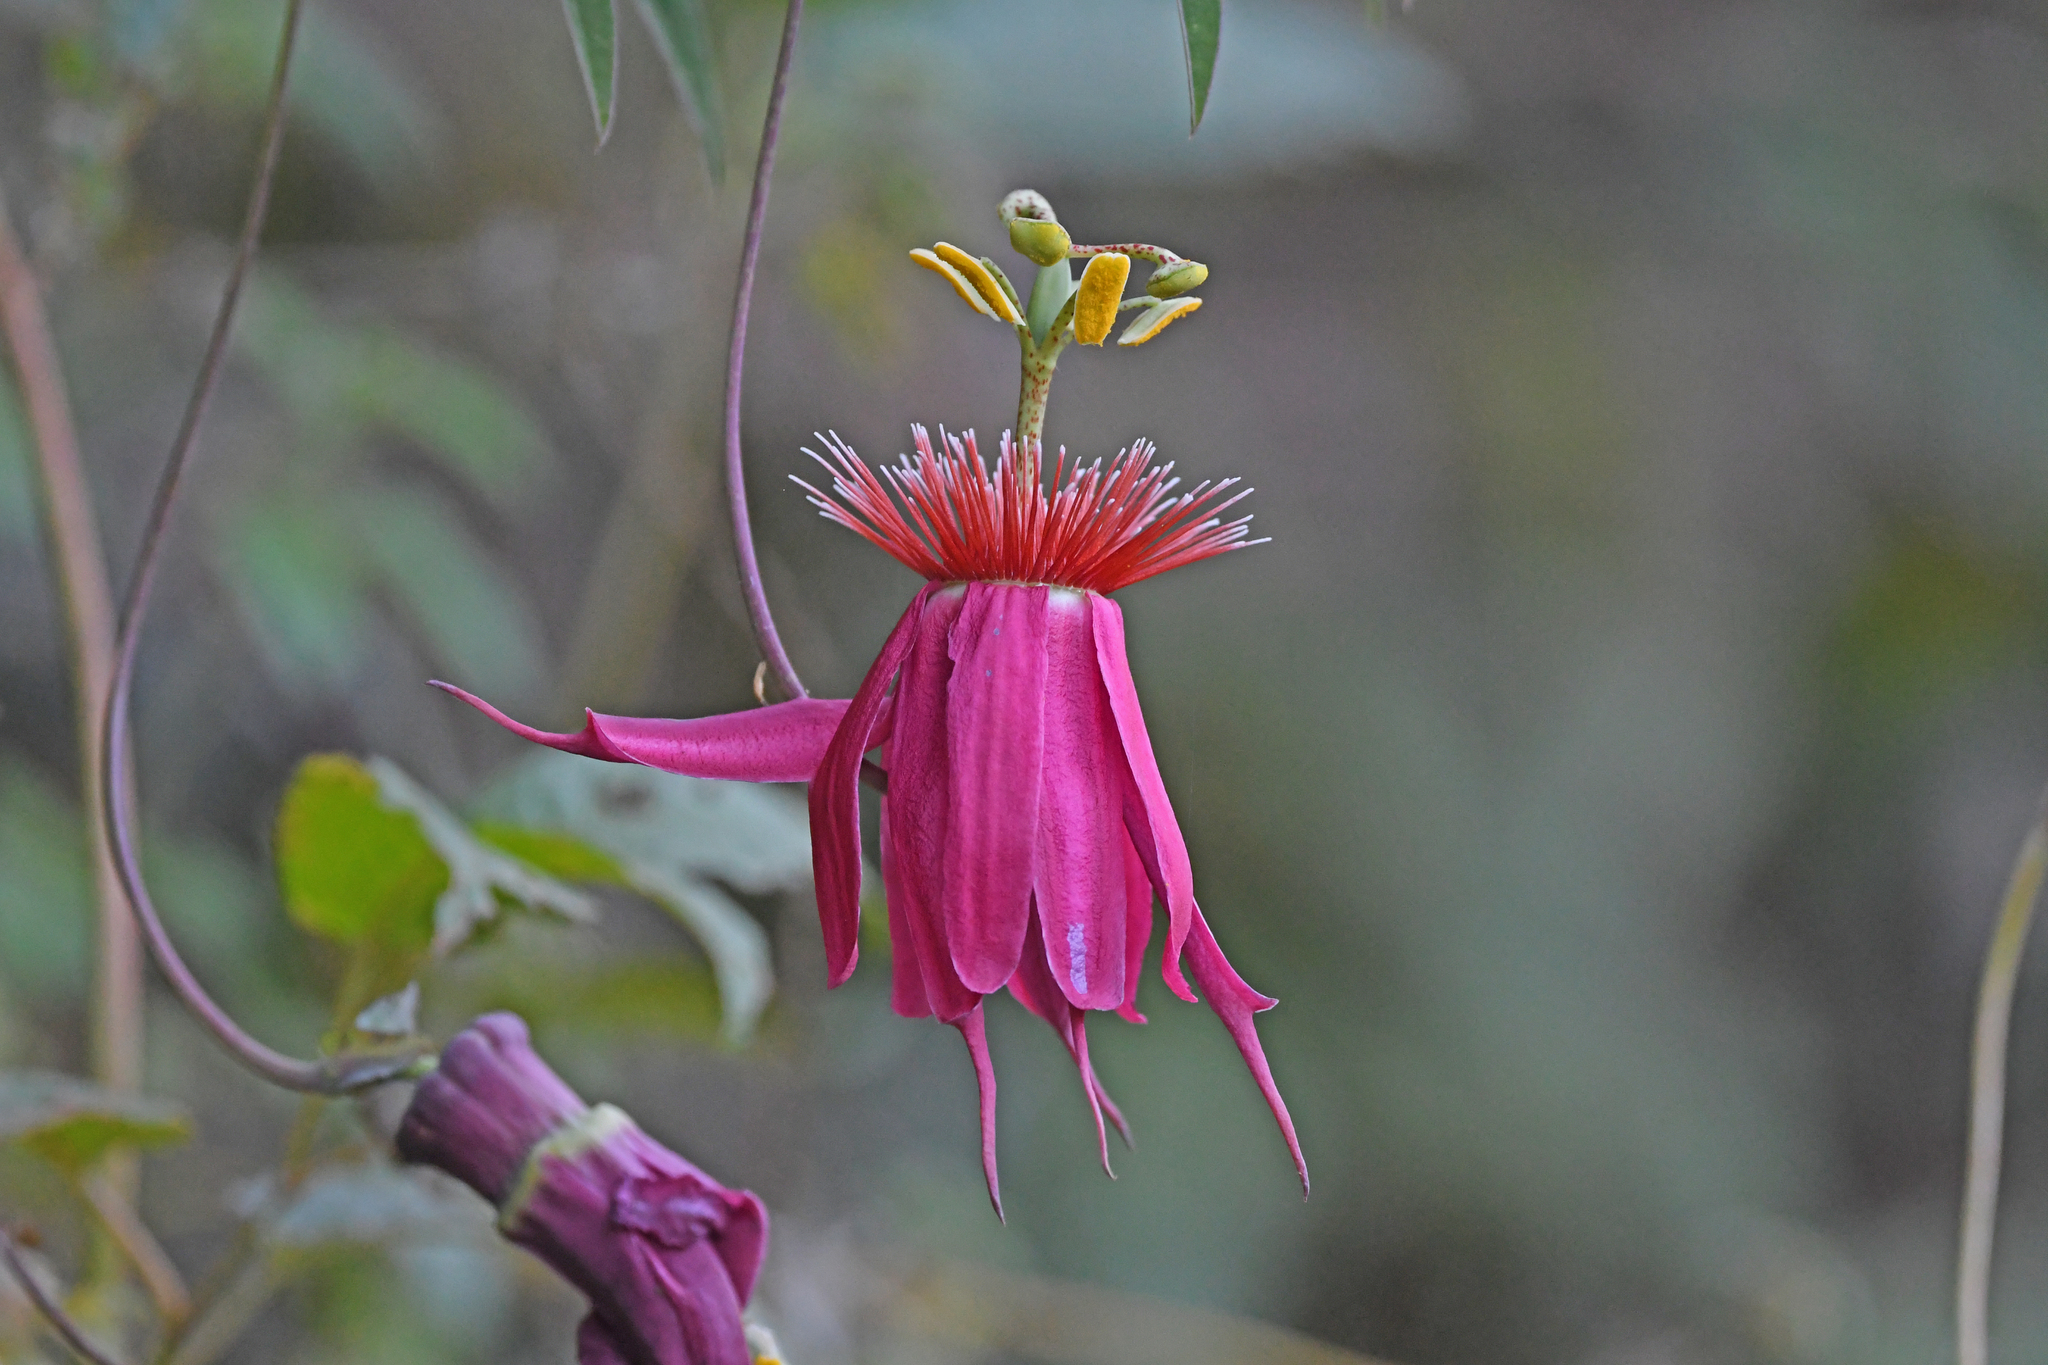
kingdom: Plantae
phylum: Tracheophyta
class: Magnoliopsida
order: Malpighiales
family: Passifloraceae
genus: Passiflora
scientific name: Passiflora gritensis
